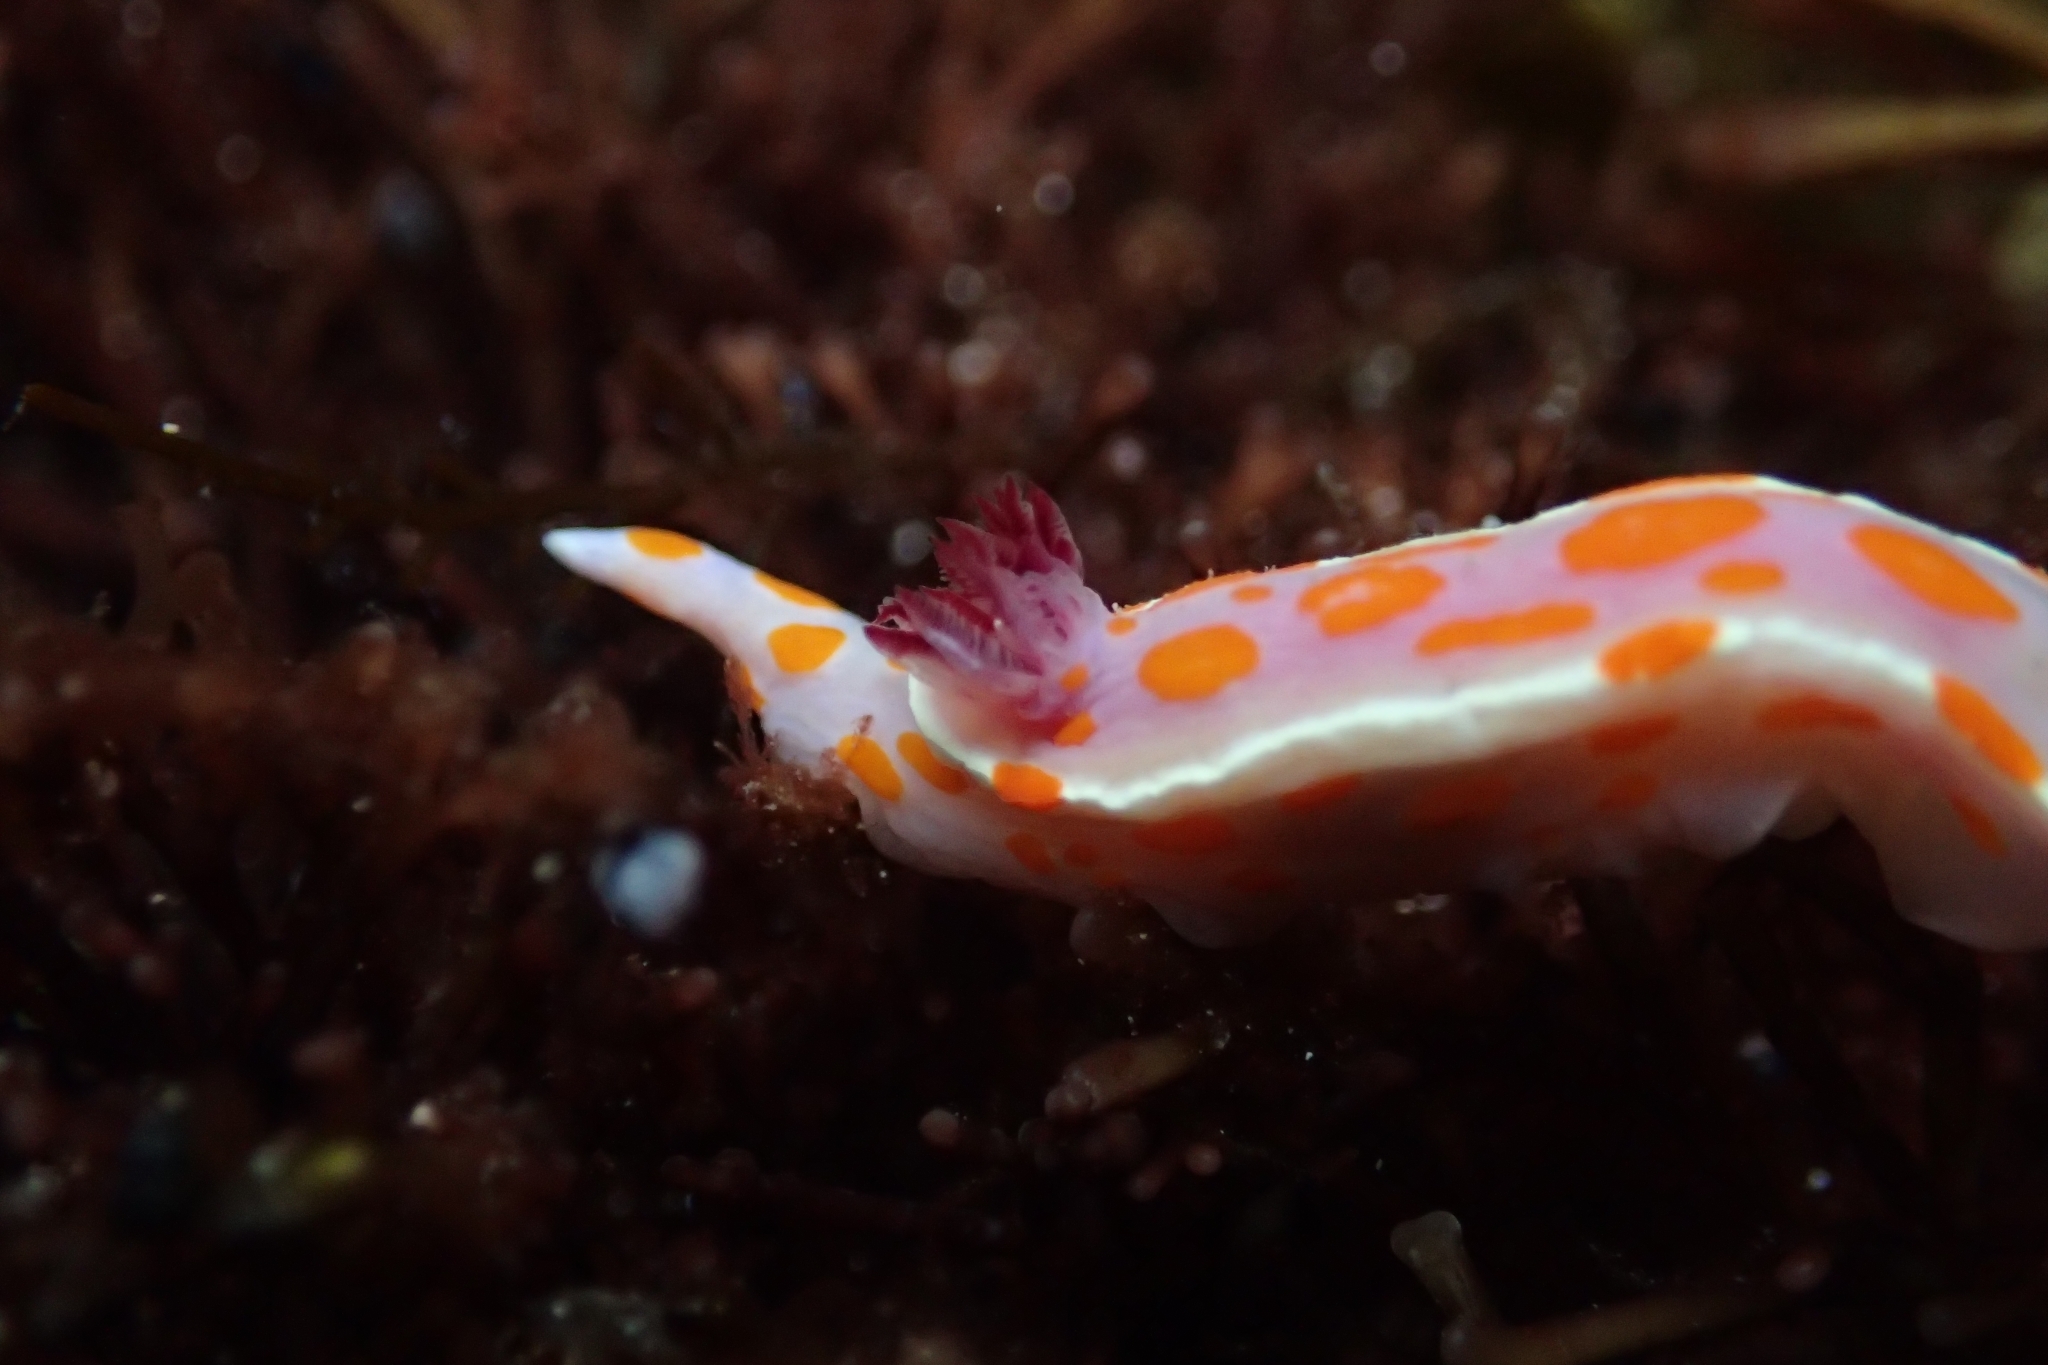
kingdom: Animalia
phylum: Mollusca
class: Gastropoda
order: Nudibranchia
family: Chromodorididae
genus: Ceratosoma
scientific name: Ceratosoma amoenum
